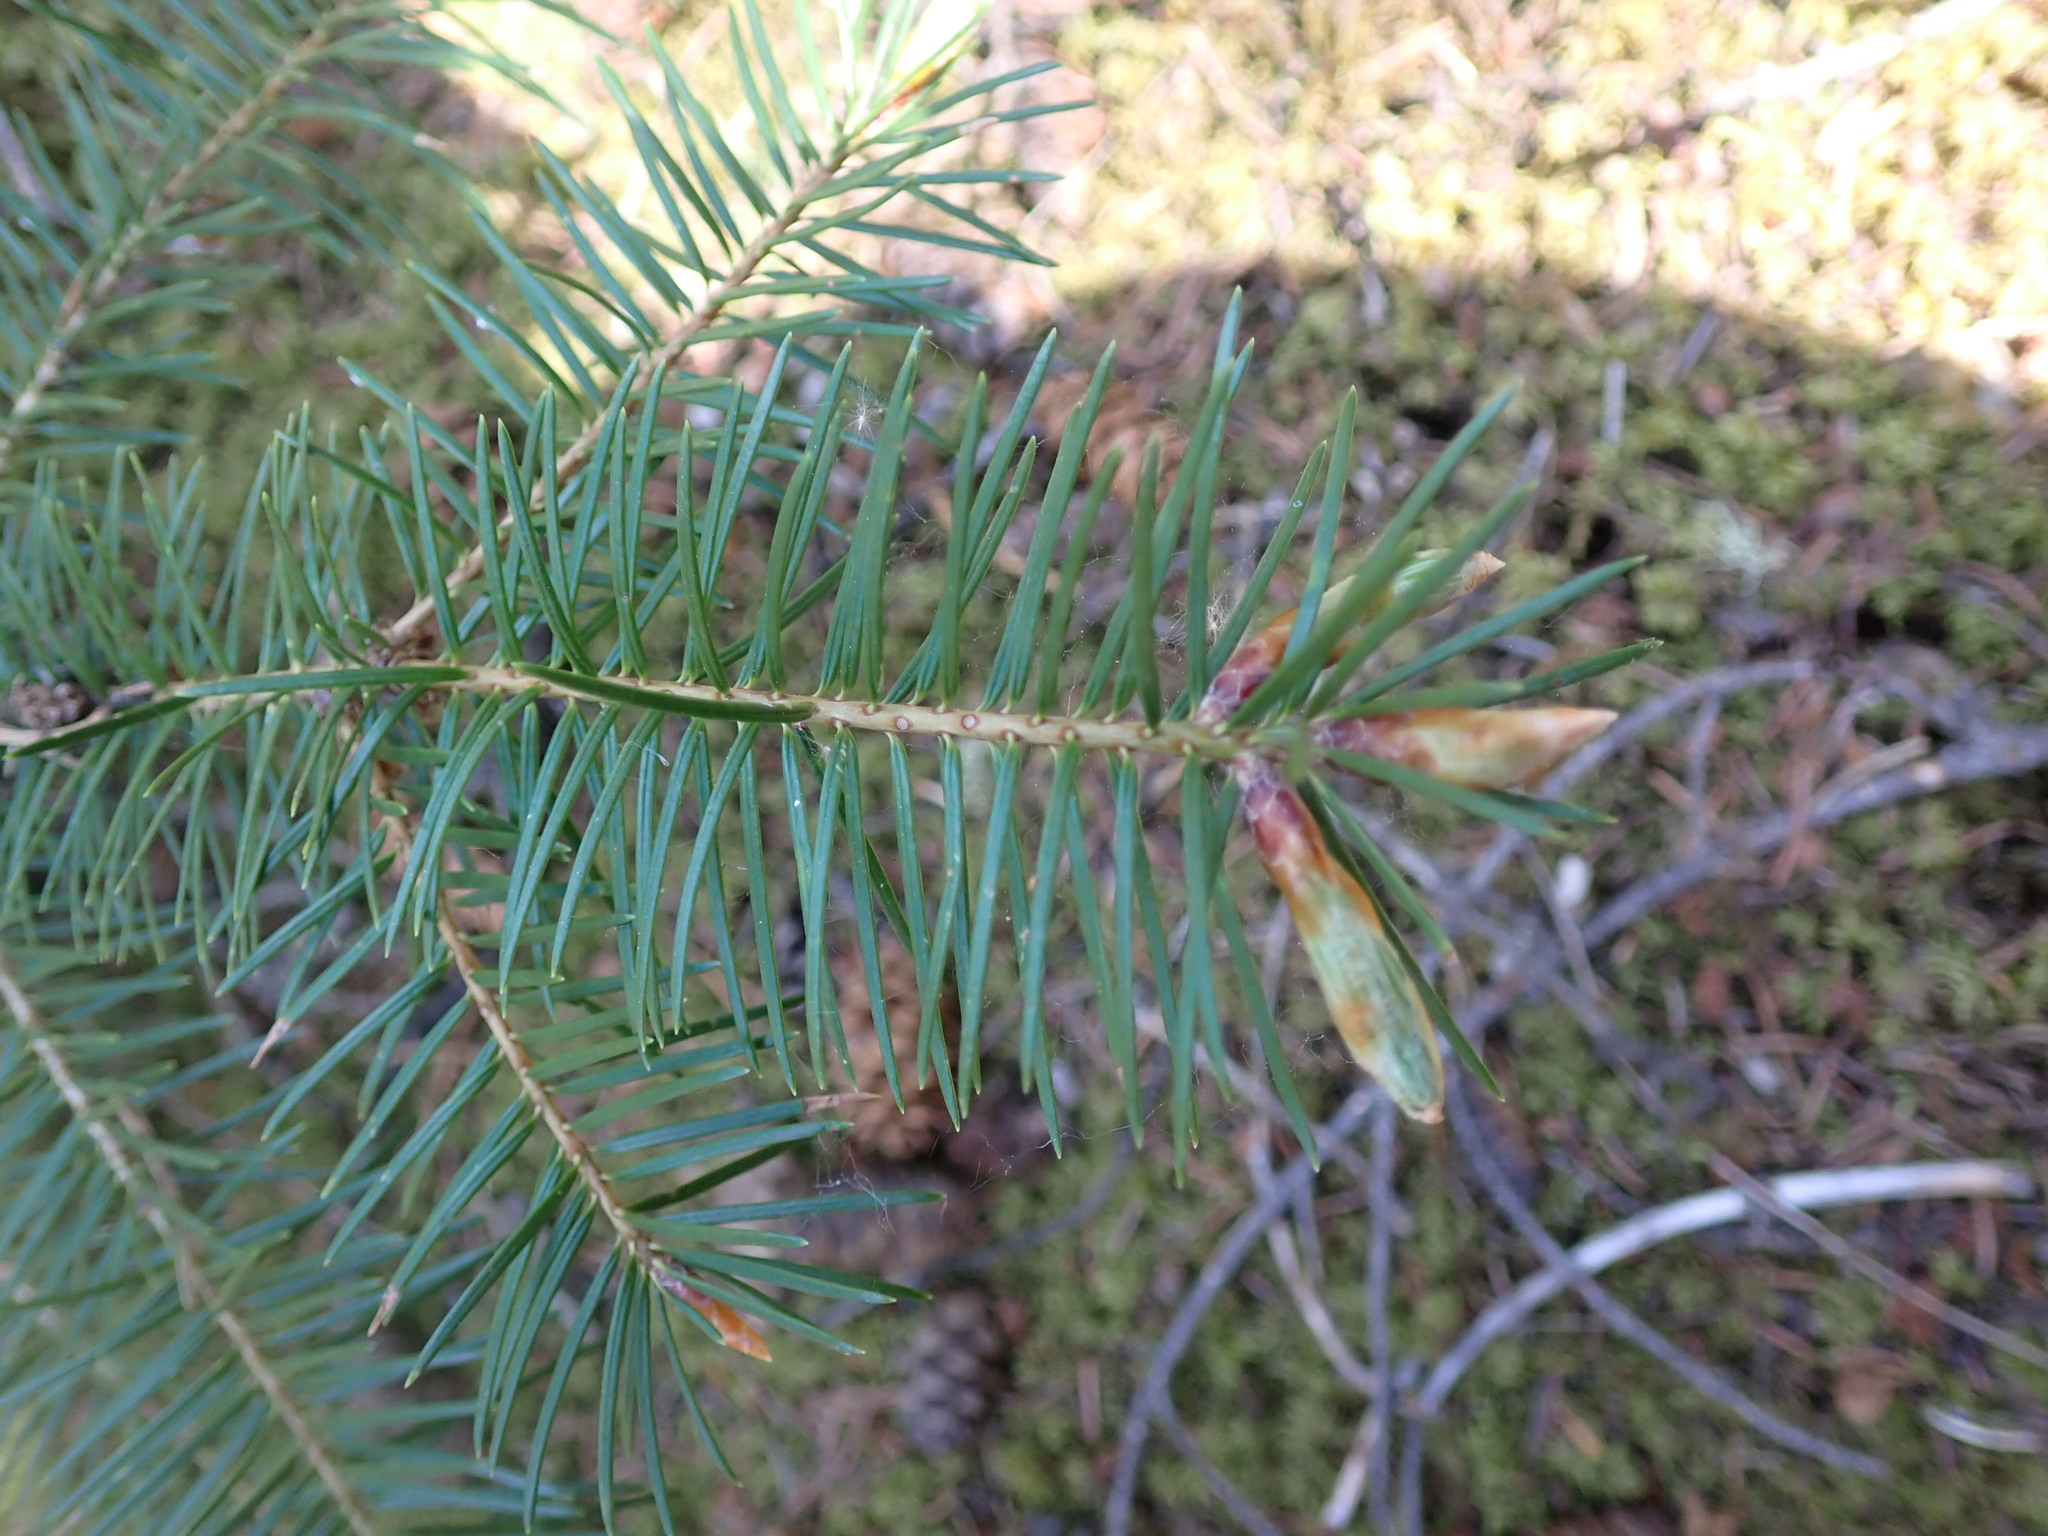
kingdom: Plantae
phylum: Tracheophyta
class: Pinopsida
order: Pinales
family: Pinaceae
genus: Pseudotsuga
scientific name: Pseudotsuga menziesii
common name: Douglas fir
